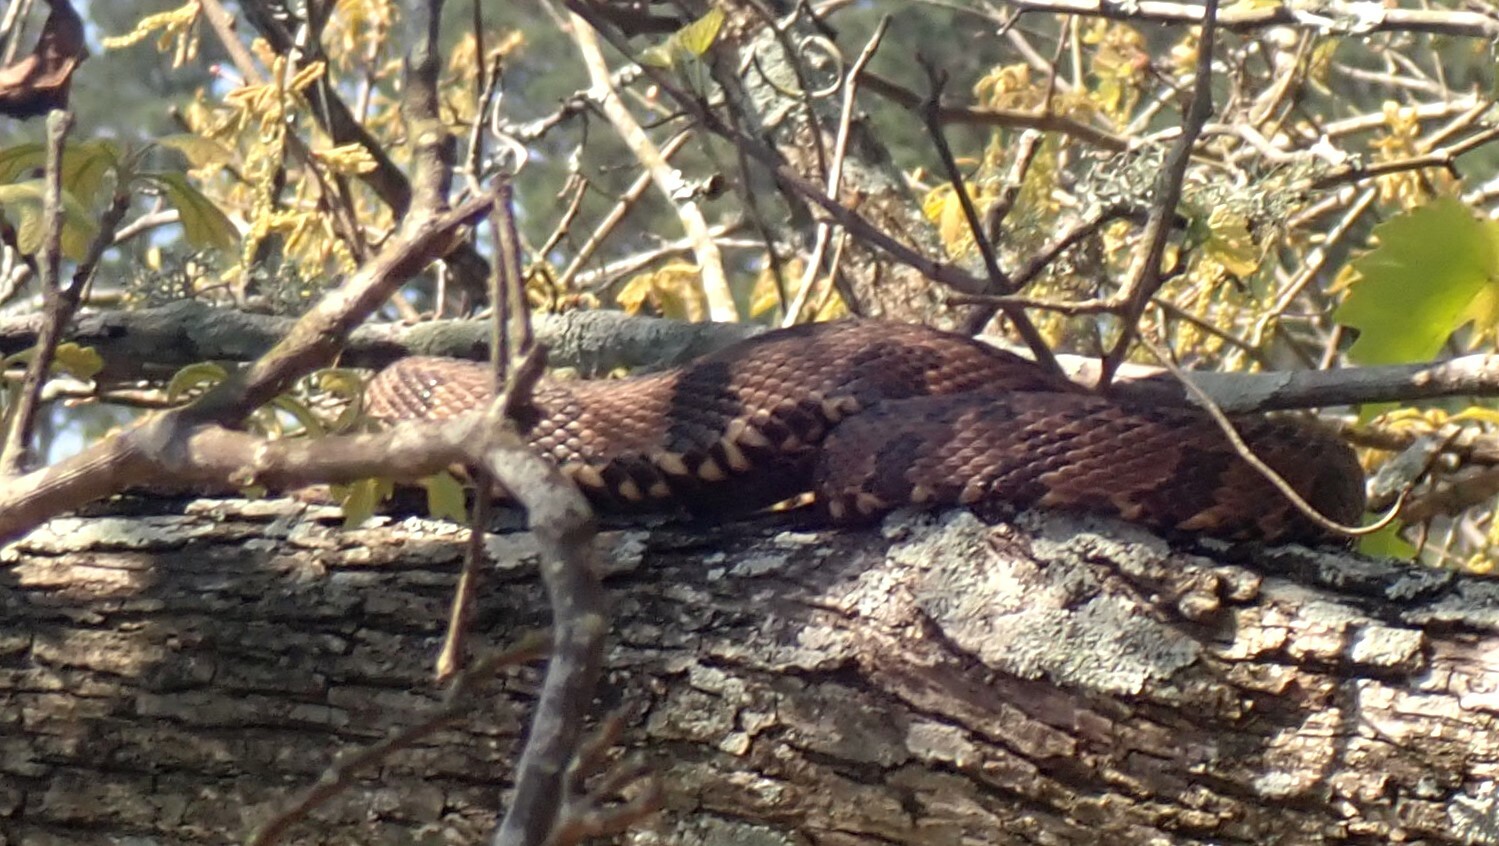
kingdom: Animalia
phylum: Chordata
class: Squamata
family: Colubridae
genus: Nerodia
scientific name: Nerodia taxispilota
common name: Brown water snake
